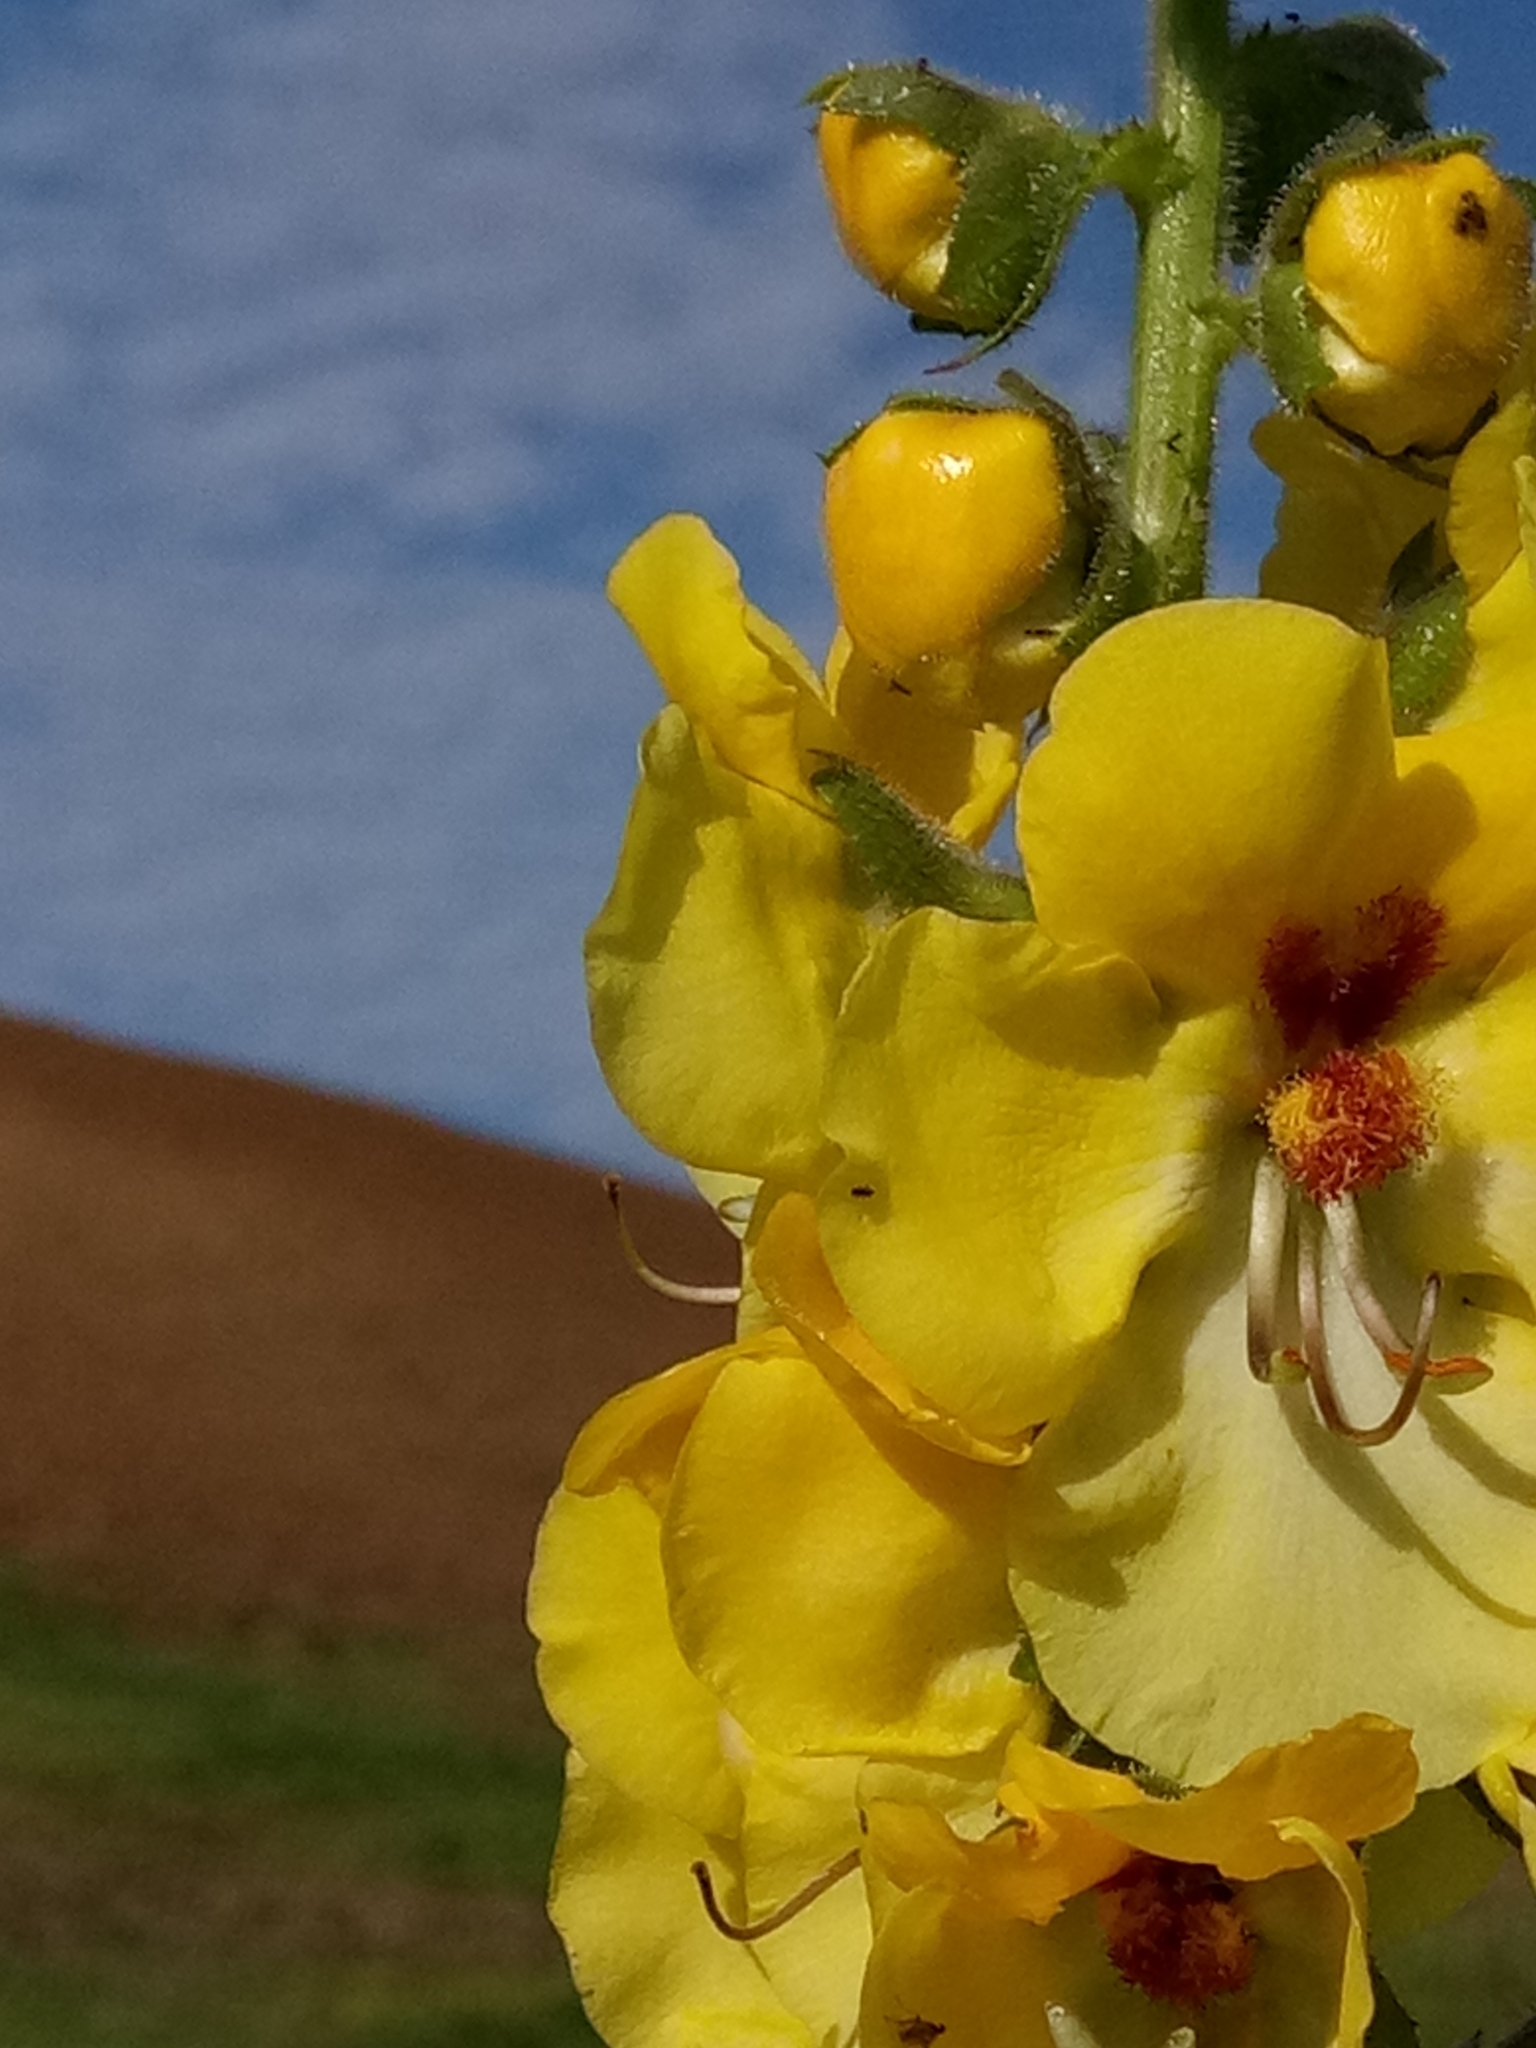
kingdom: Plantae
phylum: Tracheophyta
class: Magnoliopsida
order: Lamiales
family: Scrophulariaceae
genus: Verbascum
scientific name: Verbascum creticum
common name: Cretan mullein
